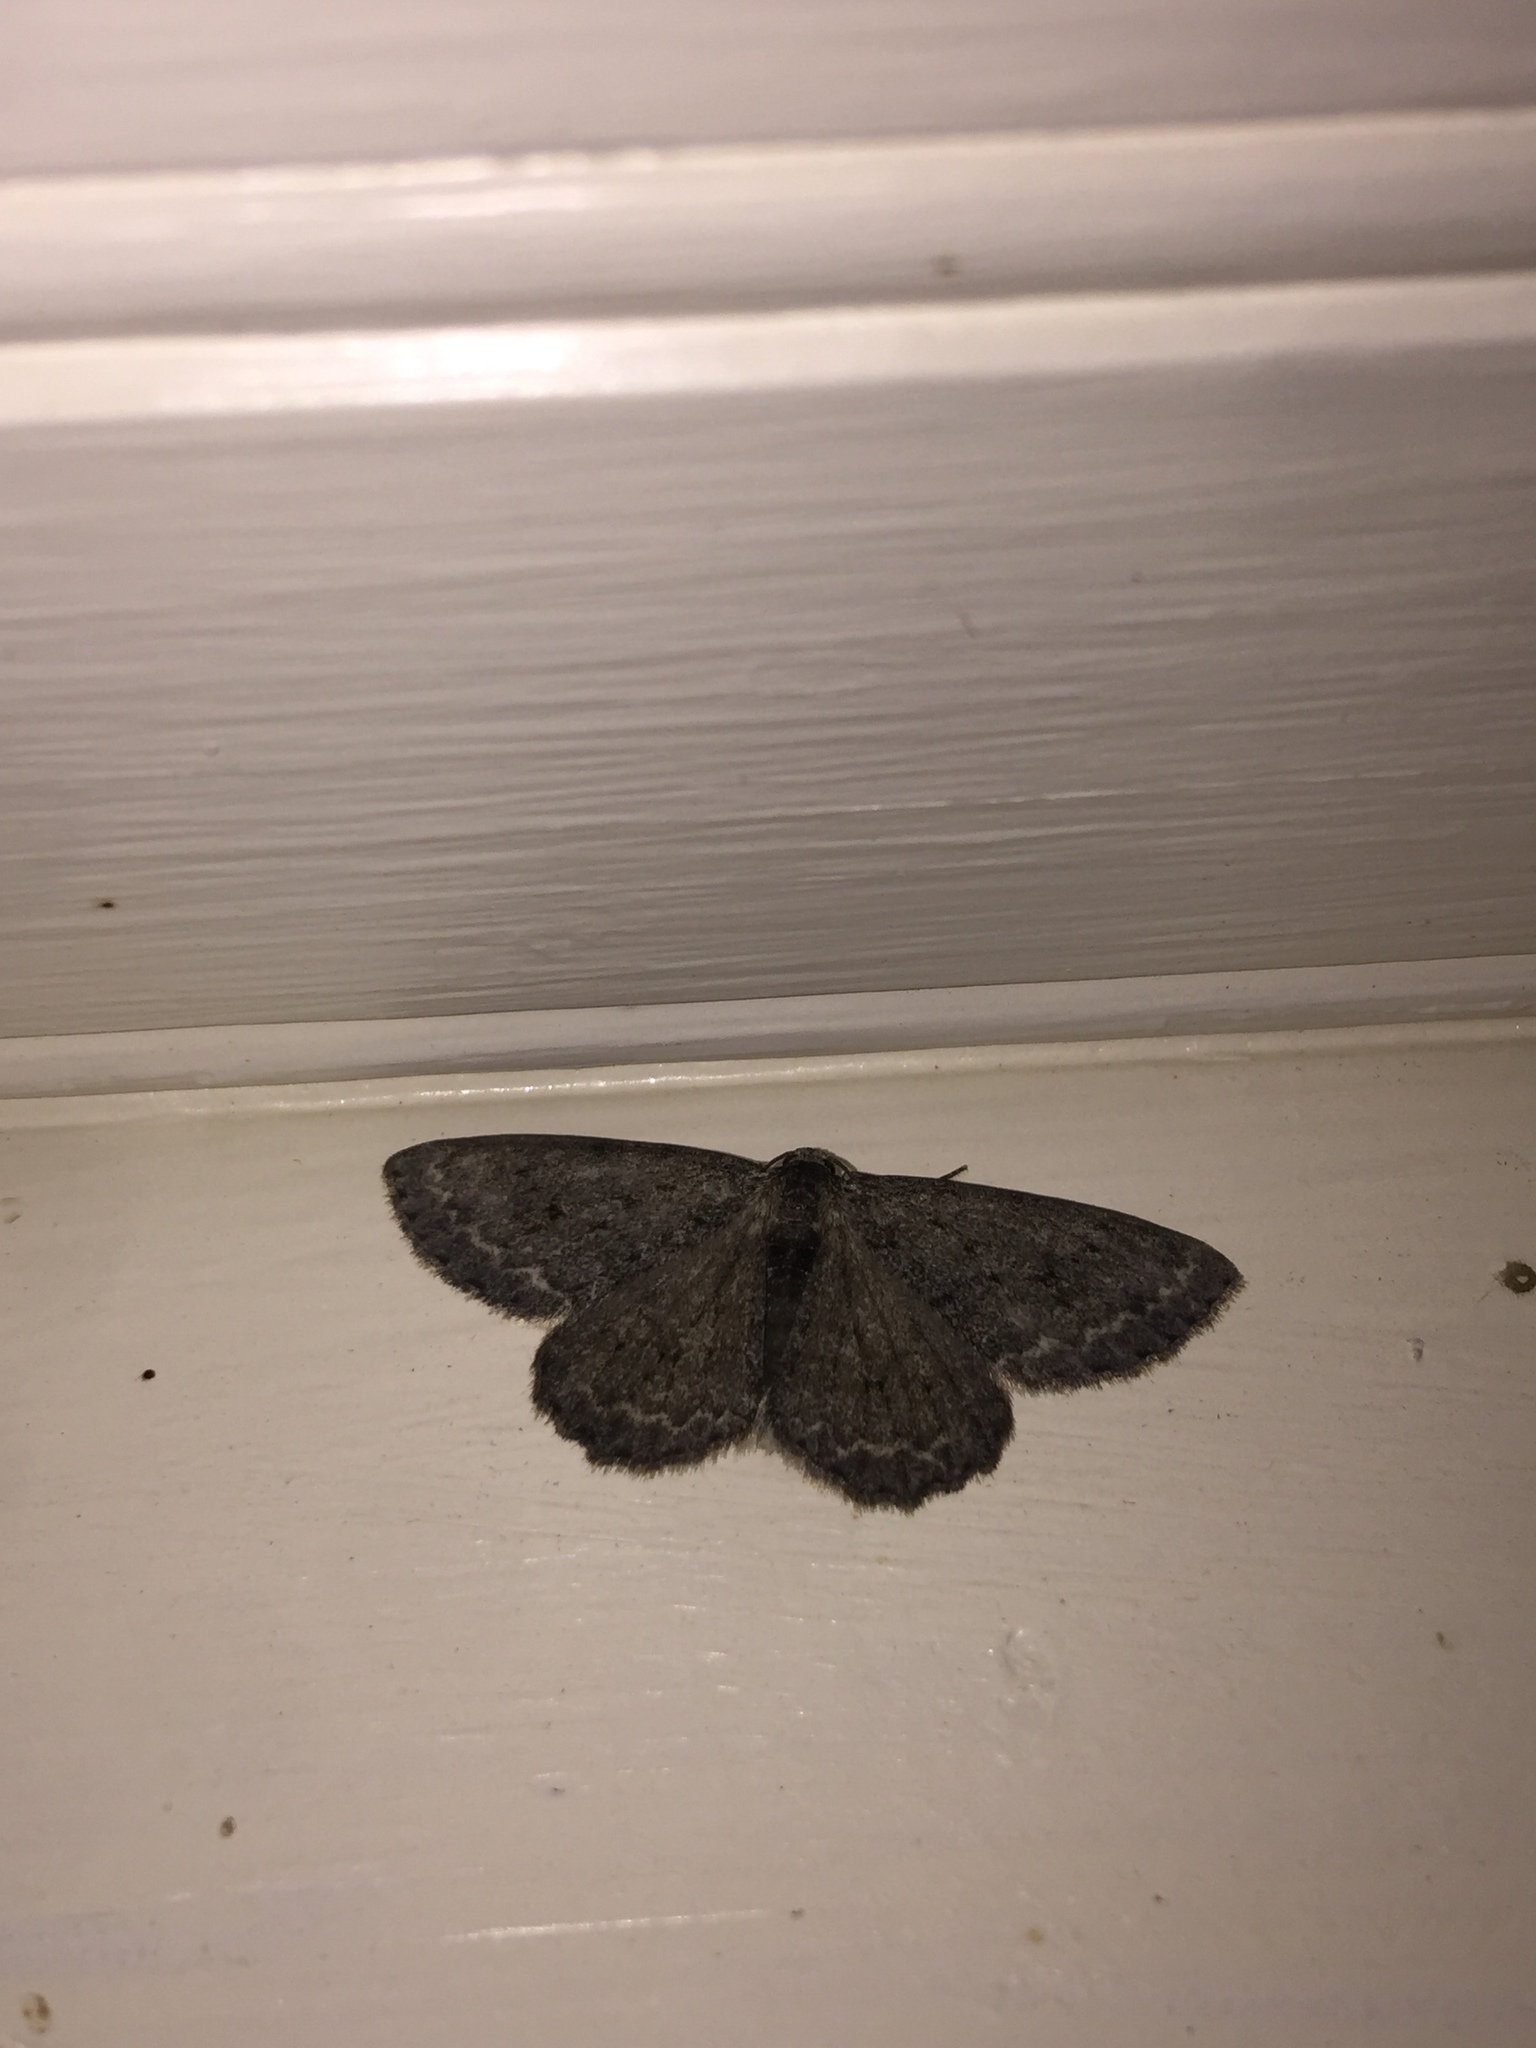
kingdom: Animalia
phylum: Arthropoda
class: Insecta
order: Lepidoptera
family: Geometridae
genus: Ectropis
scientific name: Ectropis crepuscularia
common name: Engrailed
